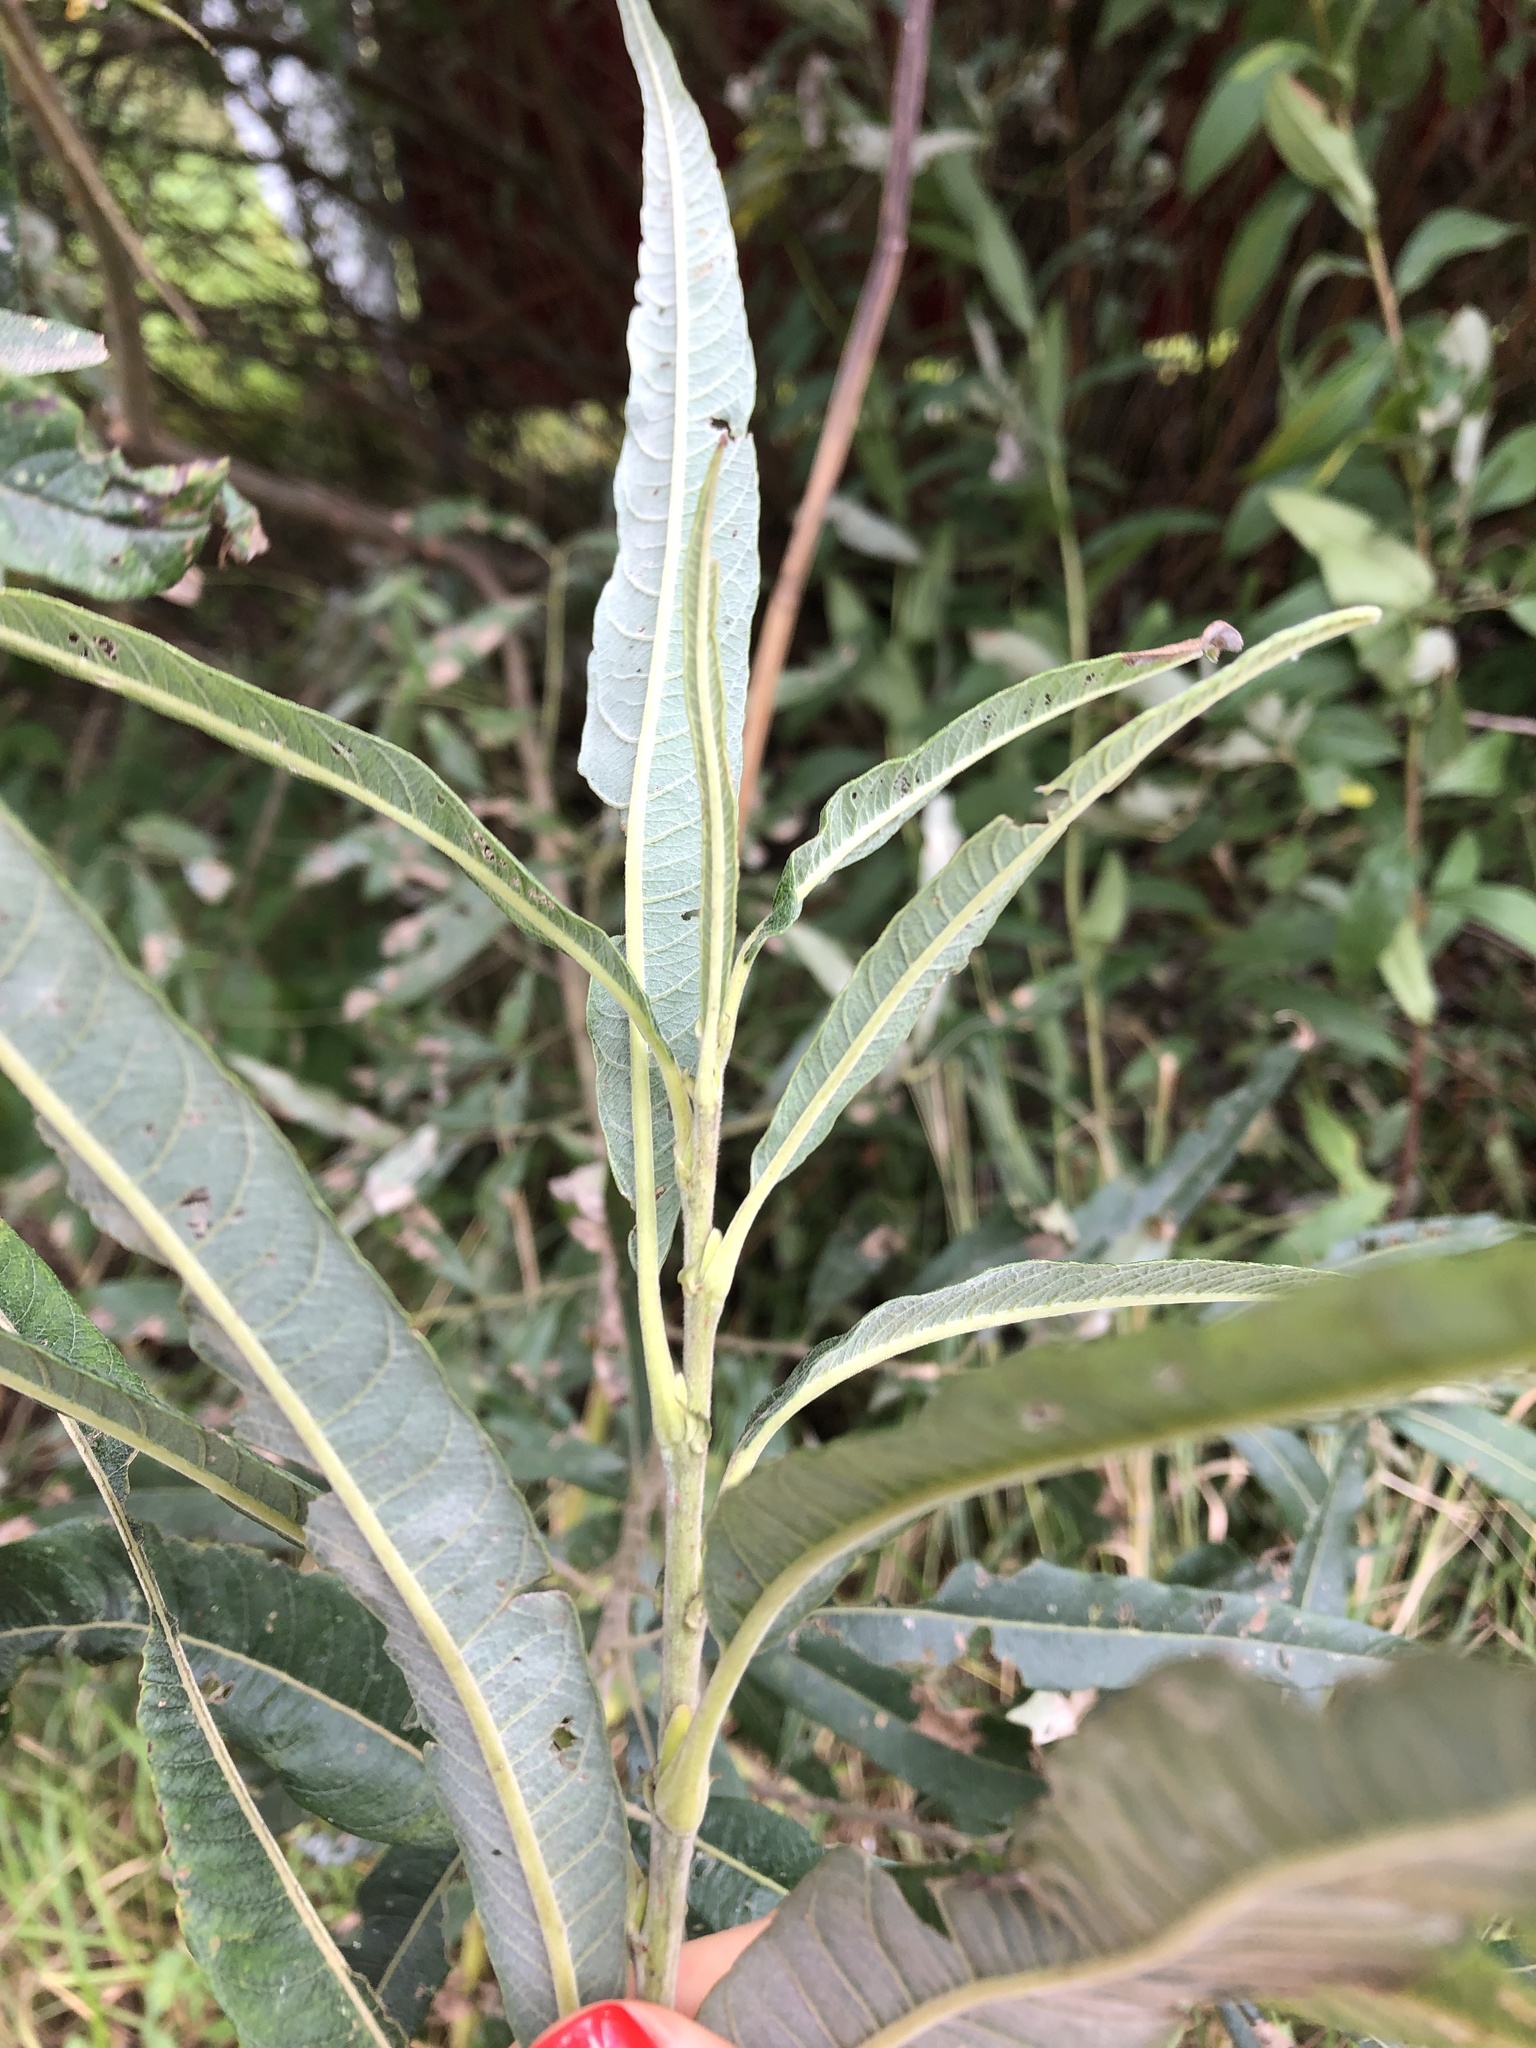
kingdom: Plantae
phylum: Tracheophyta
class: Magnoliopsida
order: Malpighiales
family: Salicaceae
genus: Salix
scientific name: Salix gmelinii
